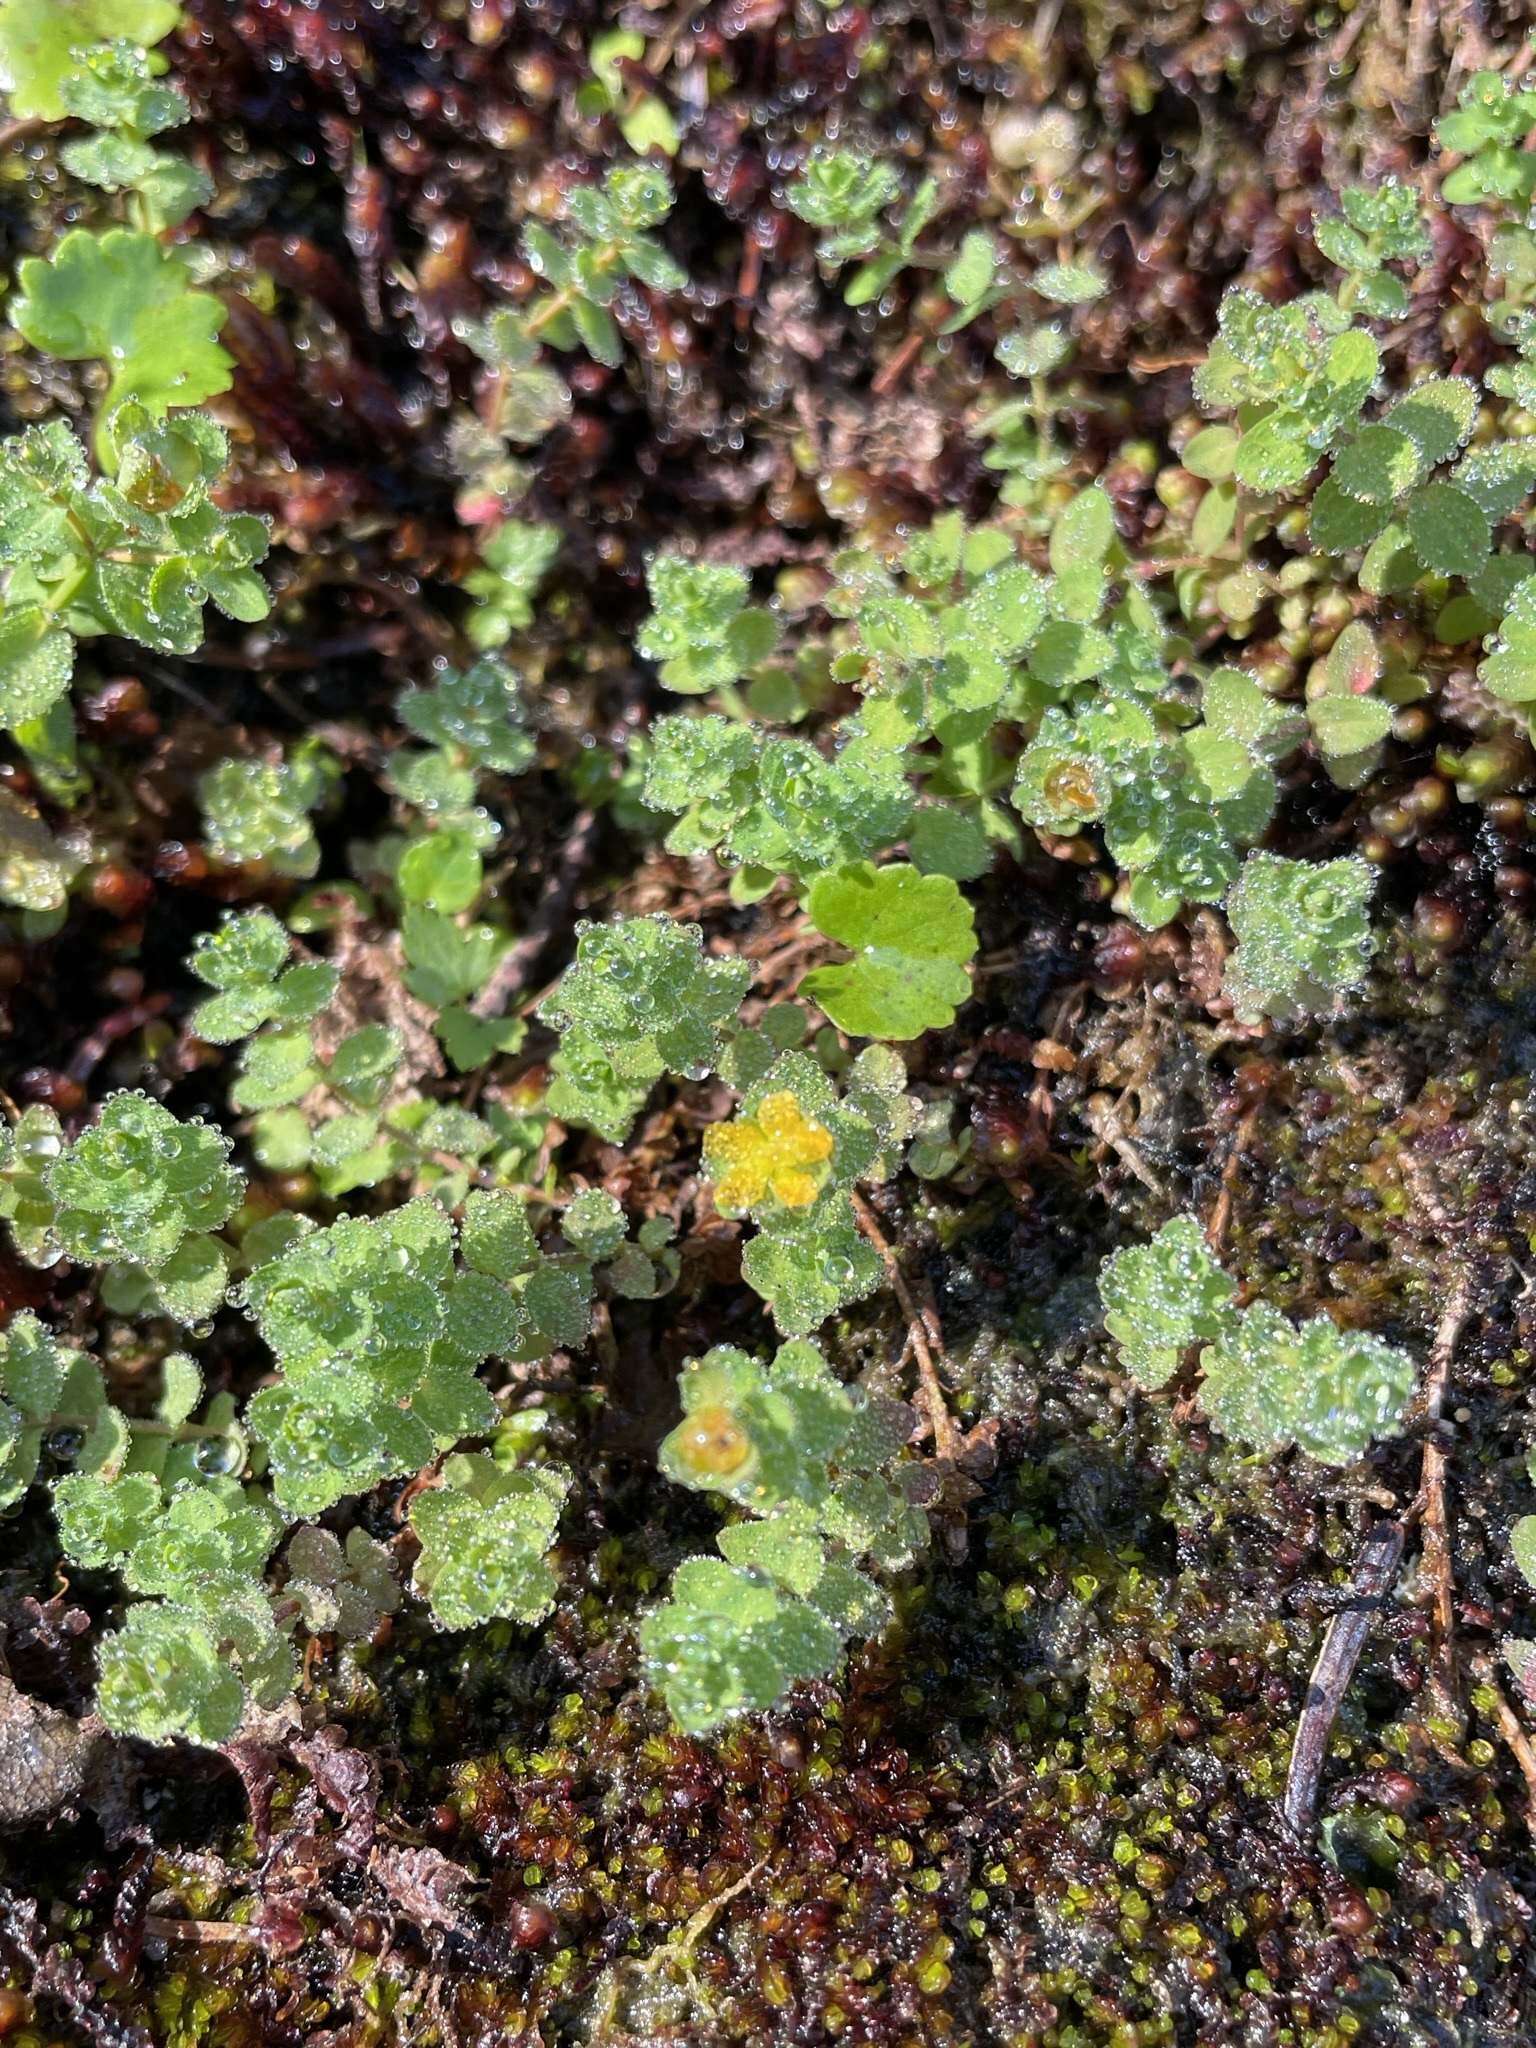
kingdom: Plantae
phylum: Tracheophyta
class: Magnoliopsida
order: Malpighiales
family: Hypericaceae
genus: Hypericum
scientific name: Hypericum anagalloides
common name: Bog st. john's-wort
